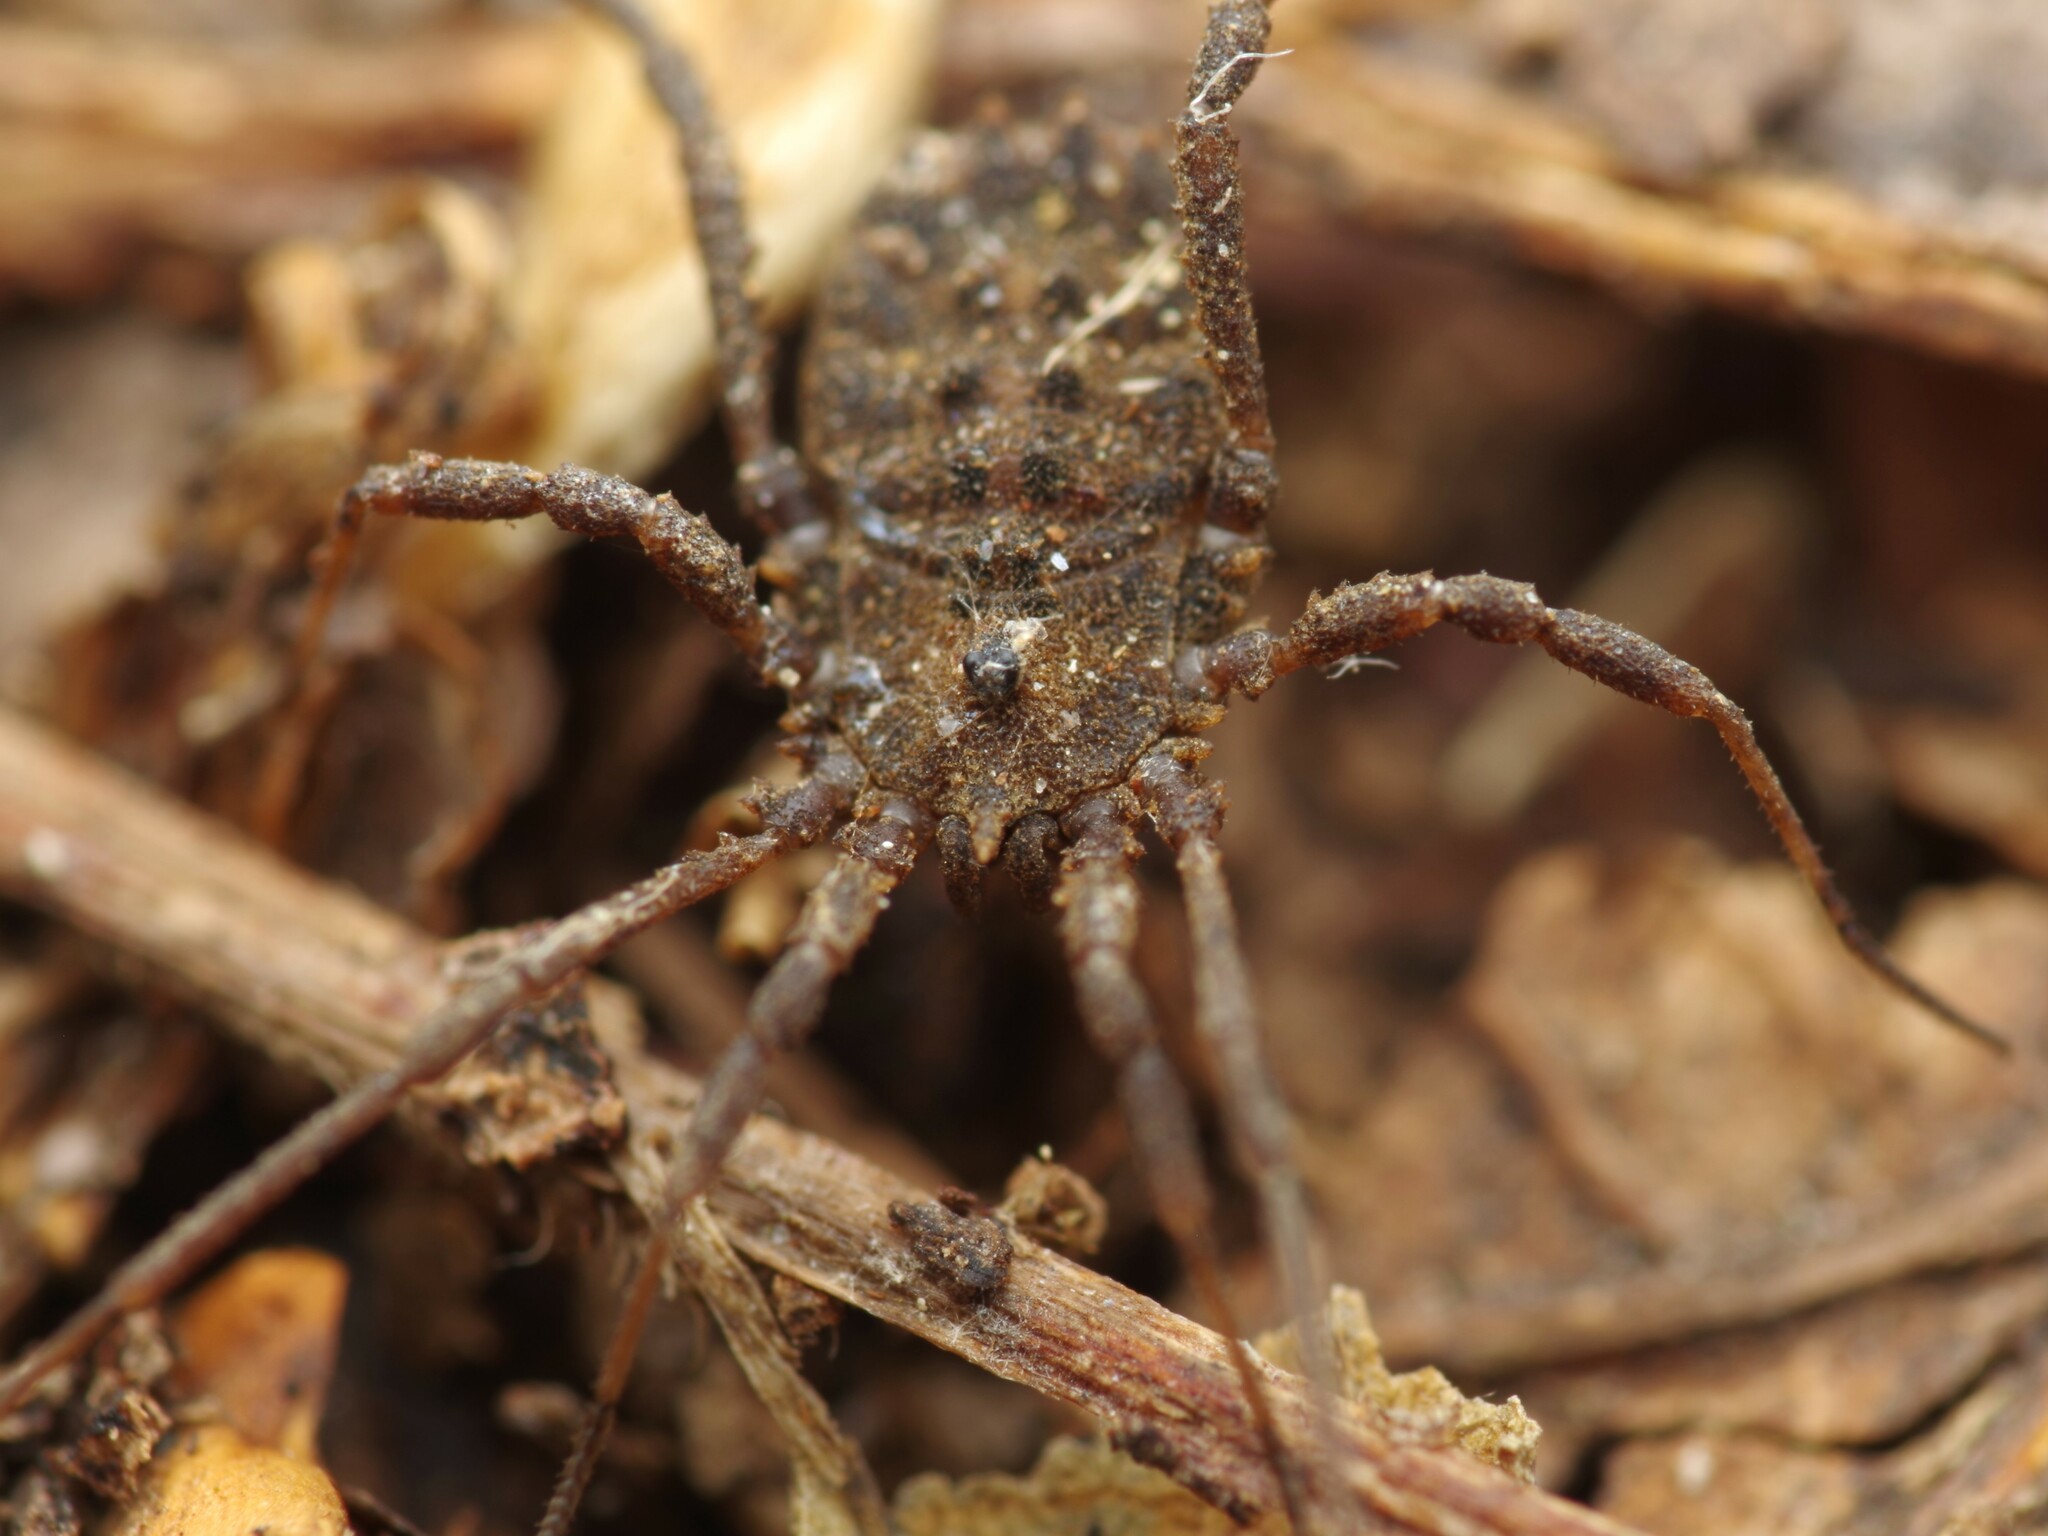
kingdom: Animalia
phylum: Arthropoda
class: Arachnida
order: Opiliones
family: Sclerosomatidae
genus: Homalenotus
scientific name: Homalenotus quadridentatus
